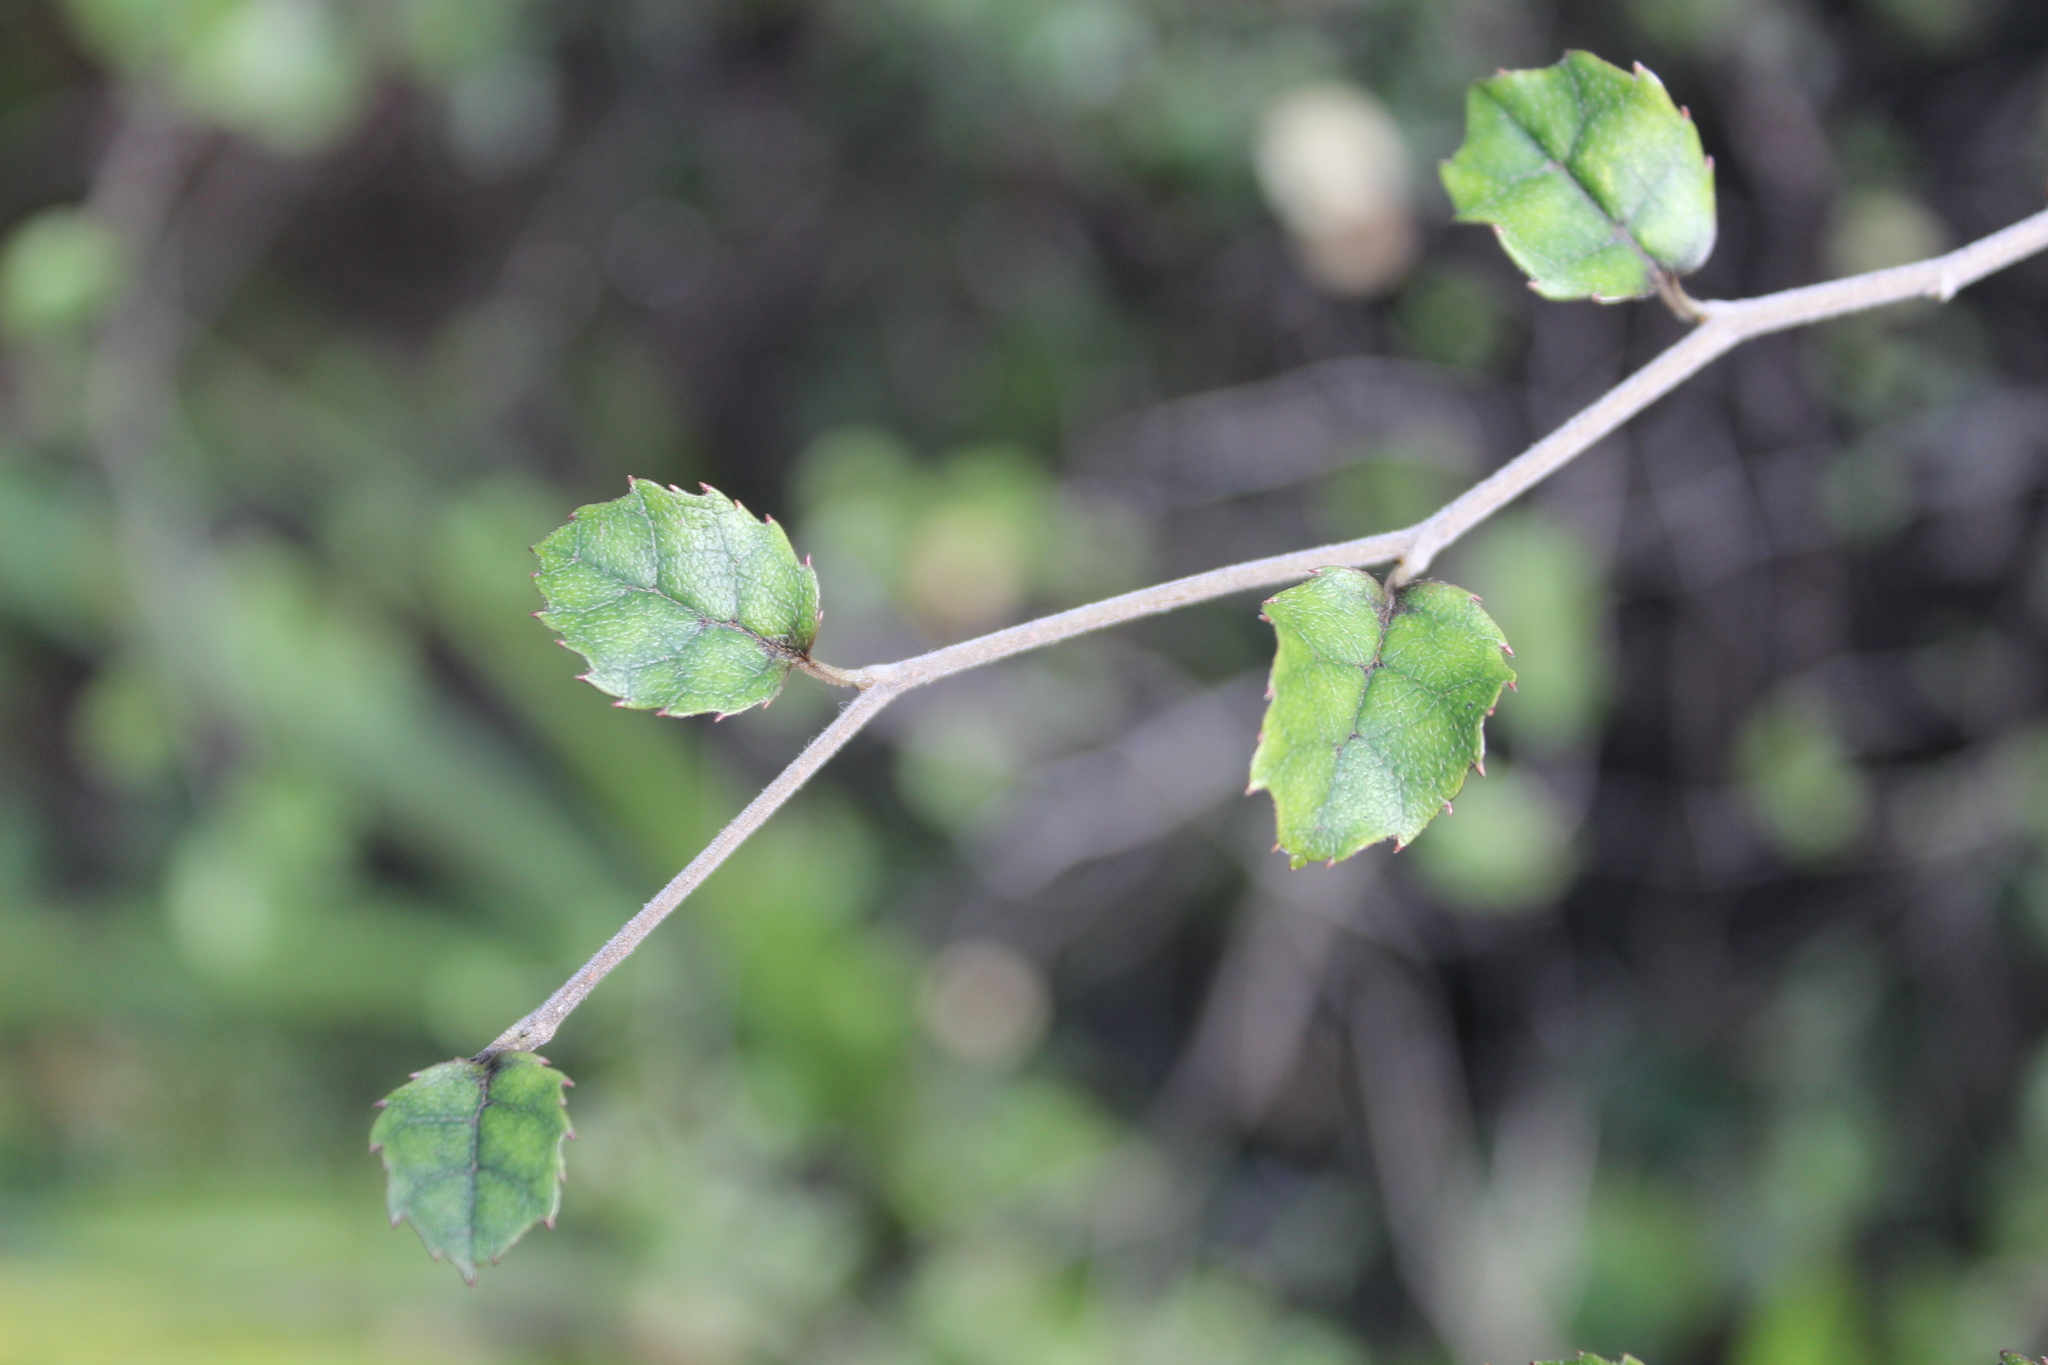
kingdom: Plantae
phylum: Tracheophyta
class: Magnoliopsida
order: Asterales
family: Rousseaceae
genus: Carpodetus
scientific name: Carpodetus serratus
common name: White mapau
